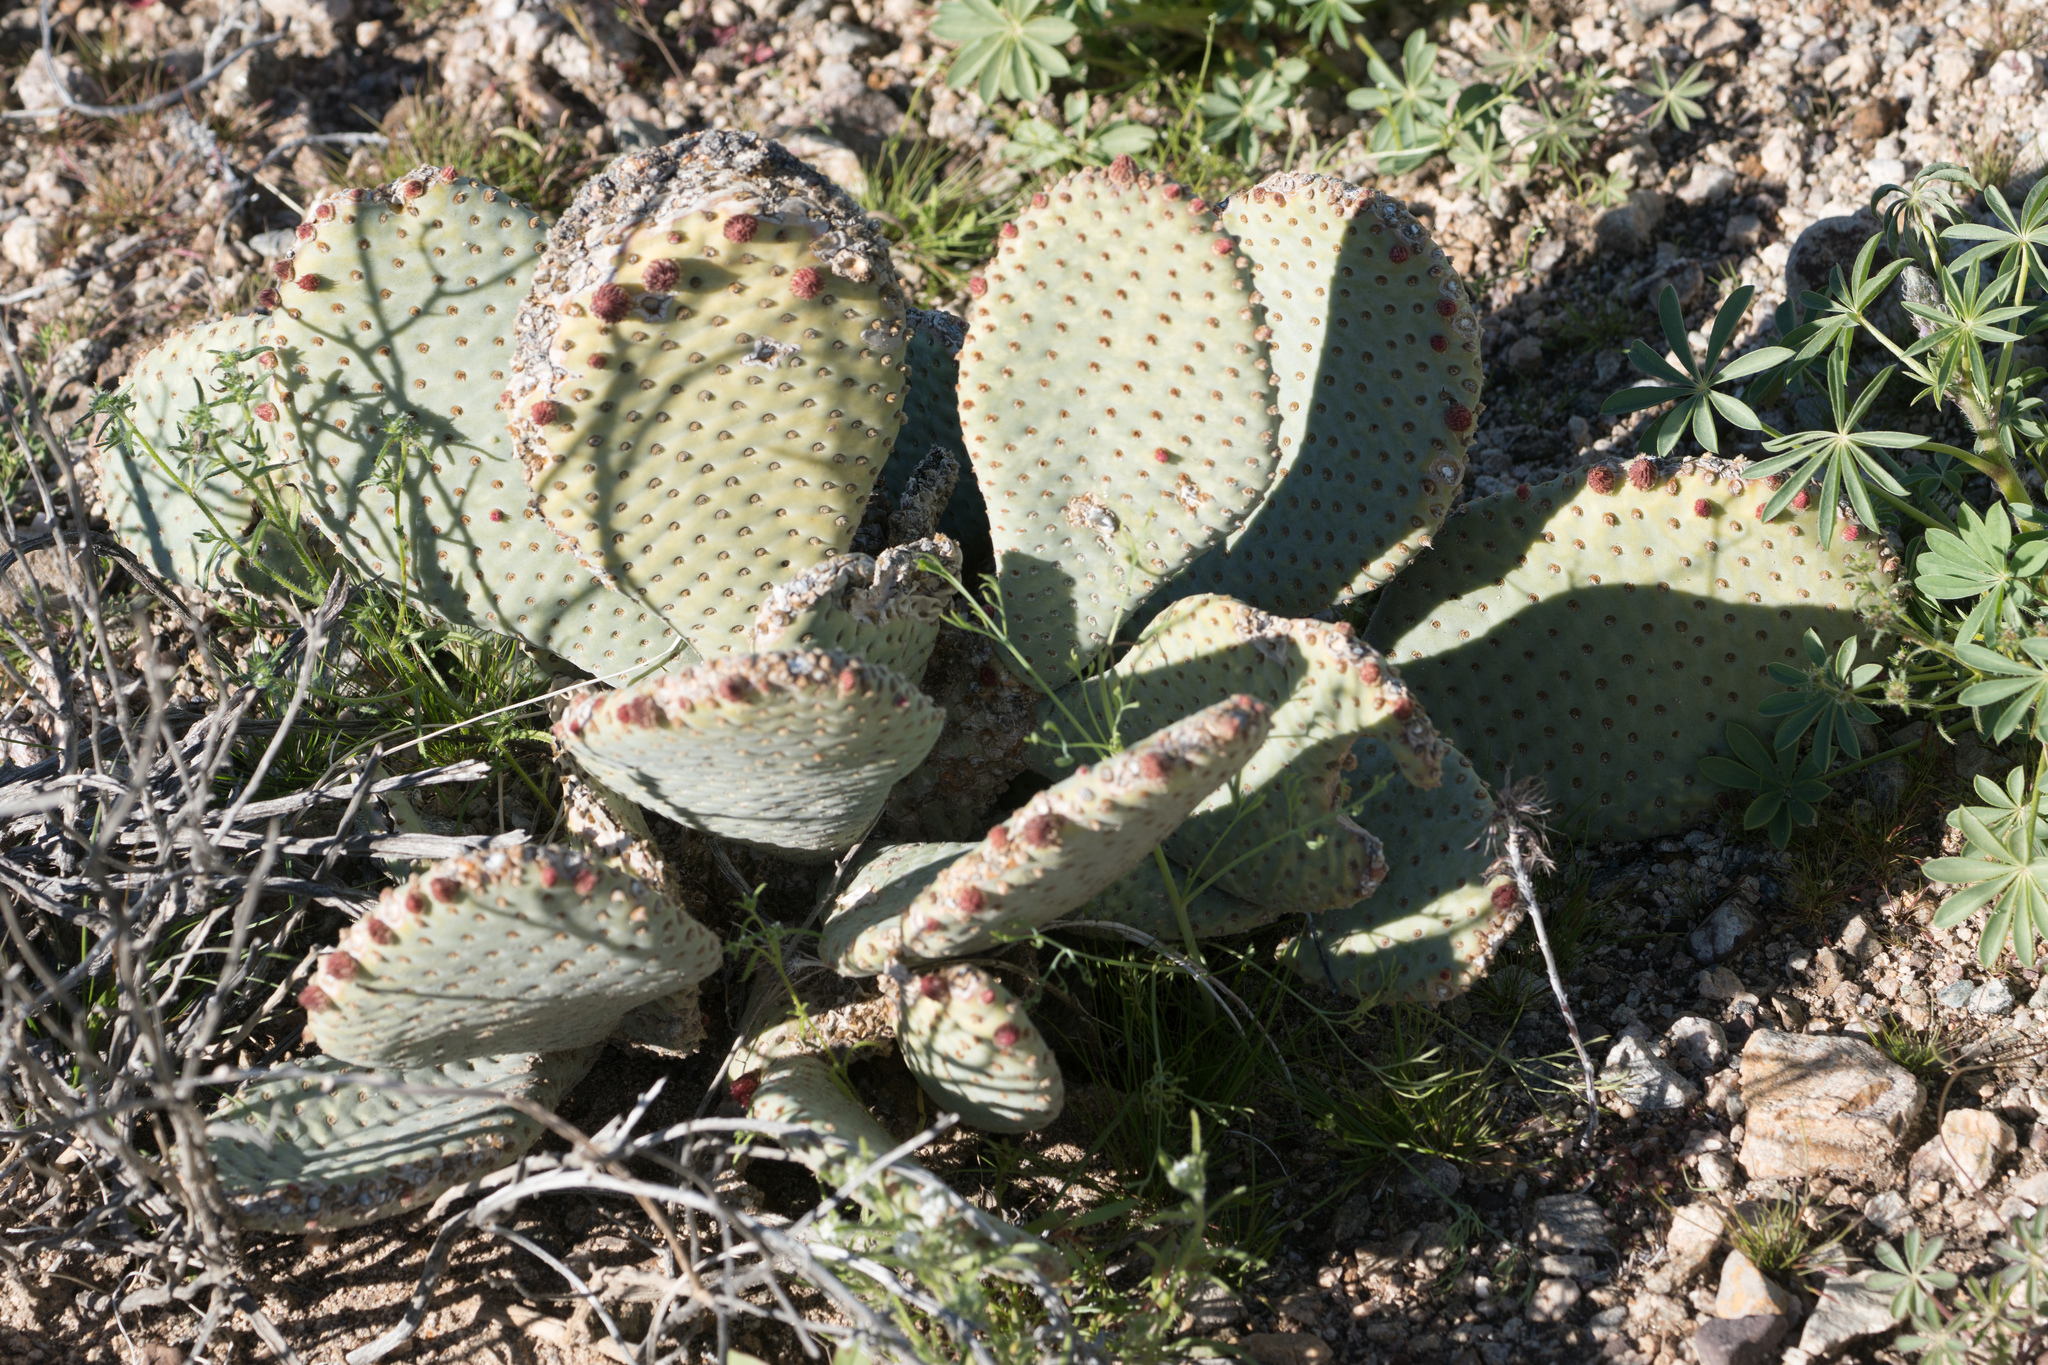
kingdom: Plantae
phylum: Tracheophyta
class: Magnoliopsida
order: Caryophyllales
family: Cactaceae
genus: Opuntia
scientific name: Opuntia basilaris
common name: Beavertail prickly-pear
